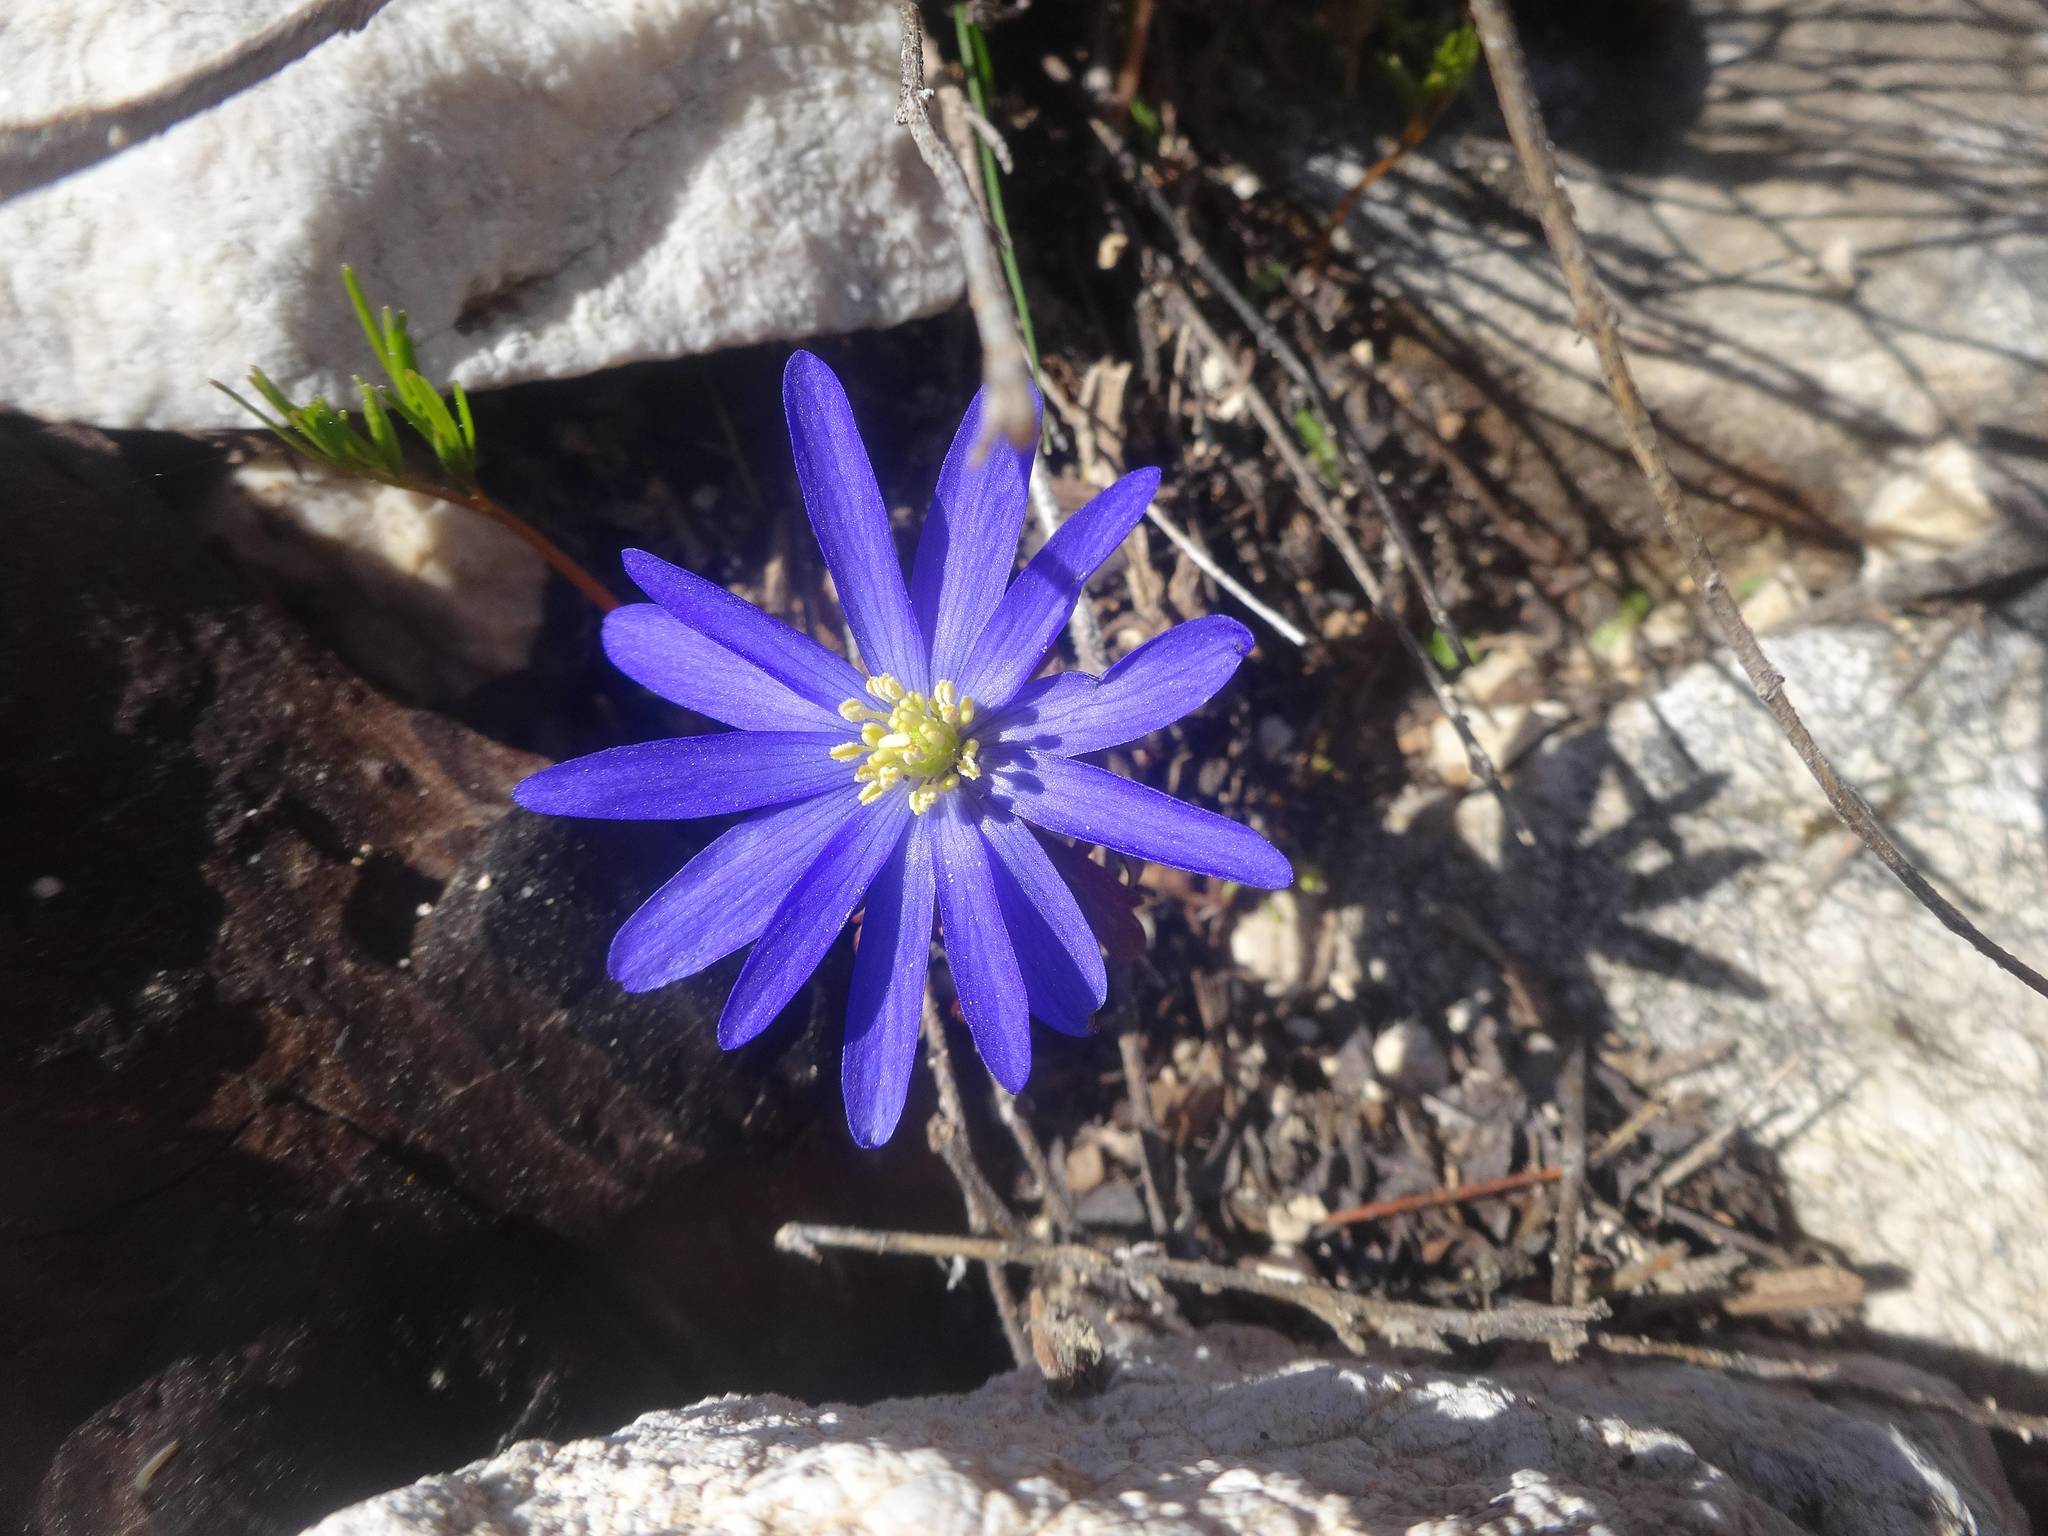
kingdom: Plantae
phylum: Tracheophyta
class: Magnoliopsida
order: Ranunculales
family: Ranunculaceae
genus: Anemone
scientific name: Anemone blanda
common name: Balkan anemone
